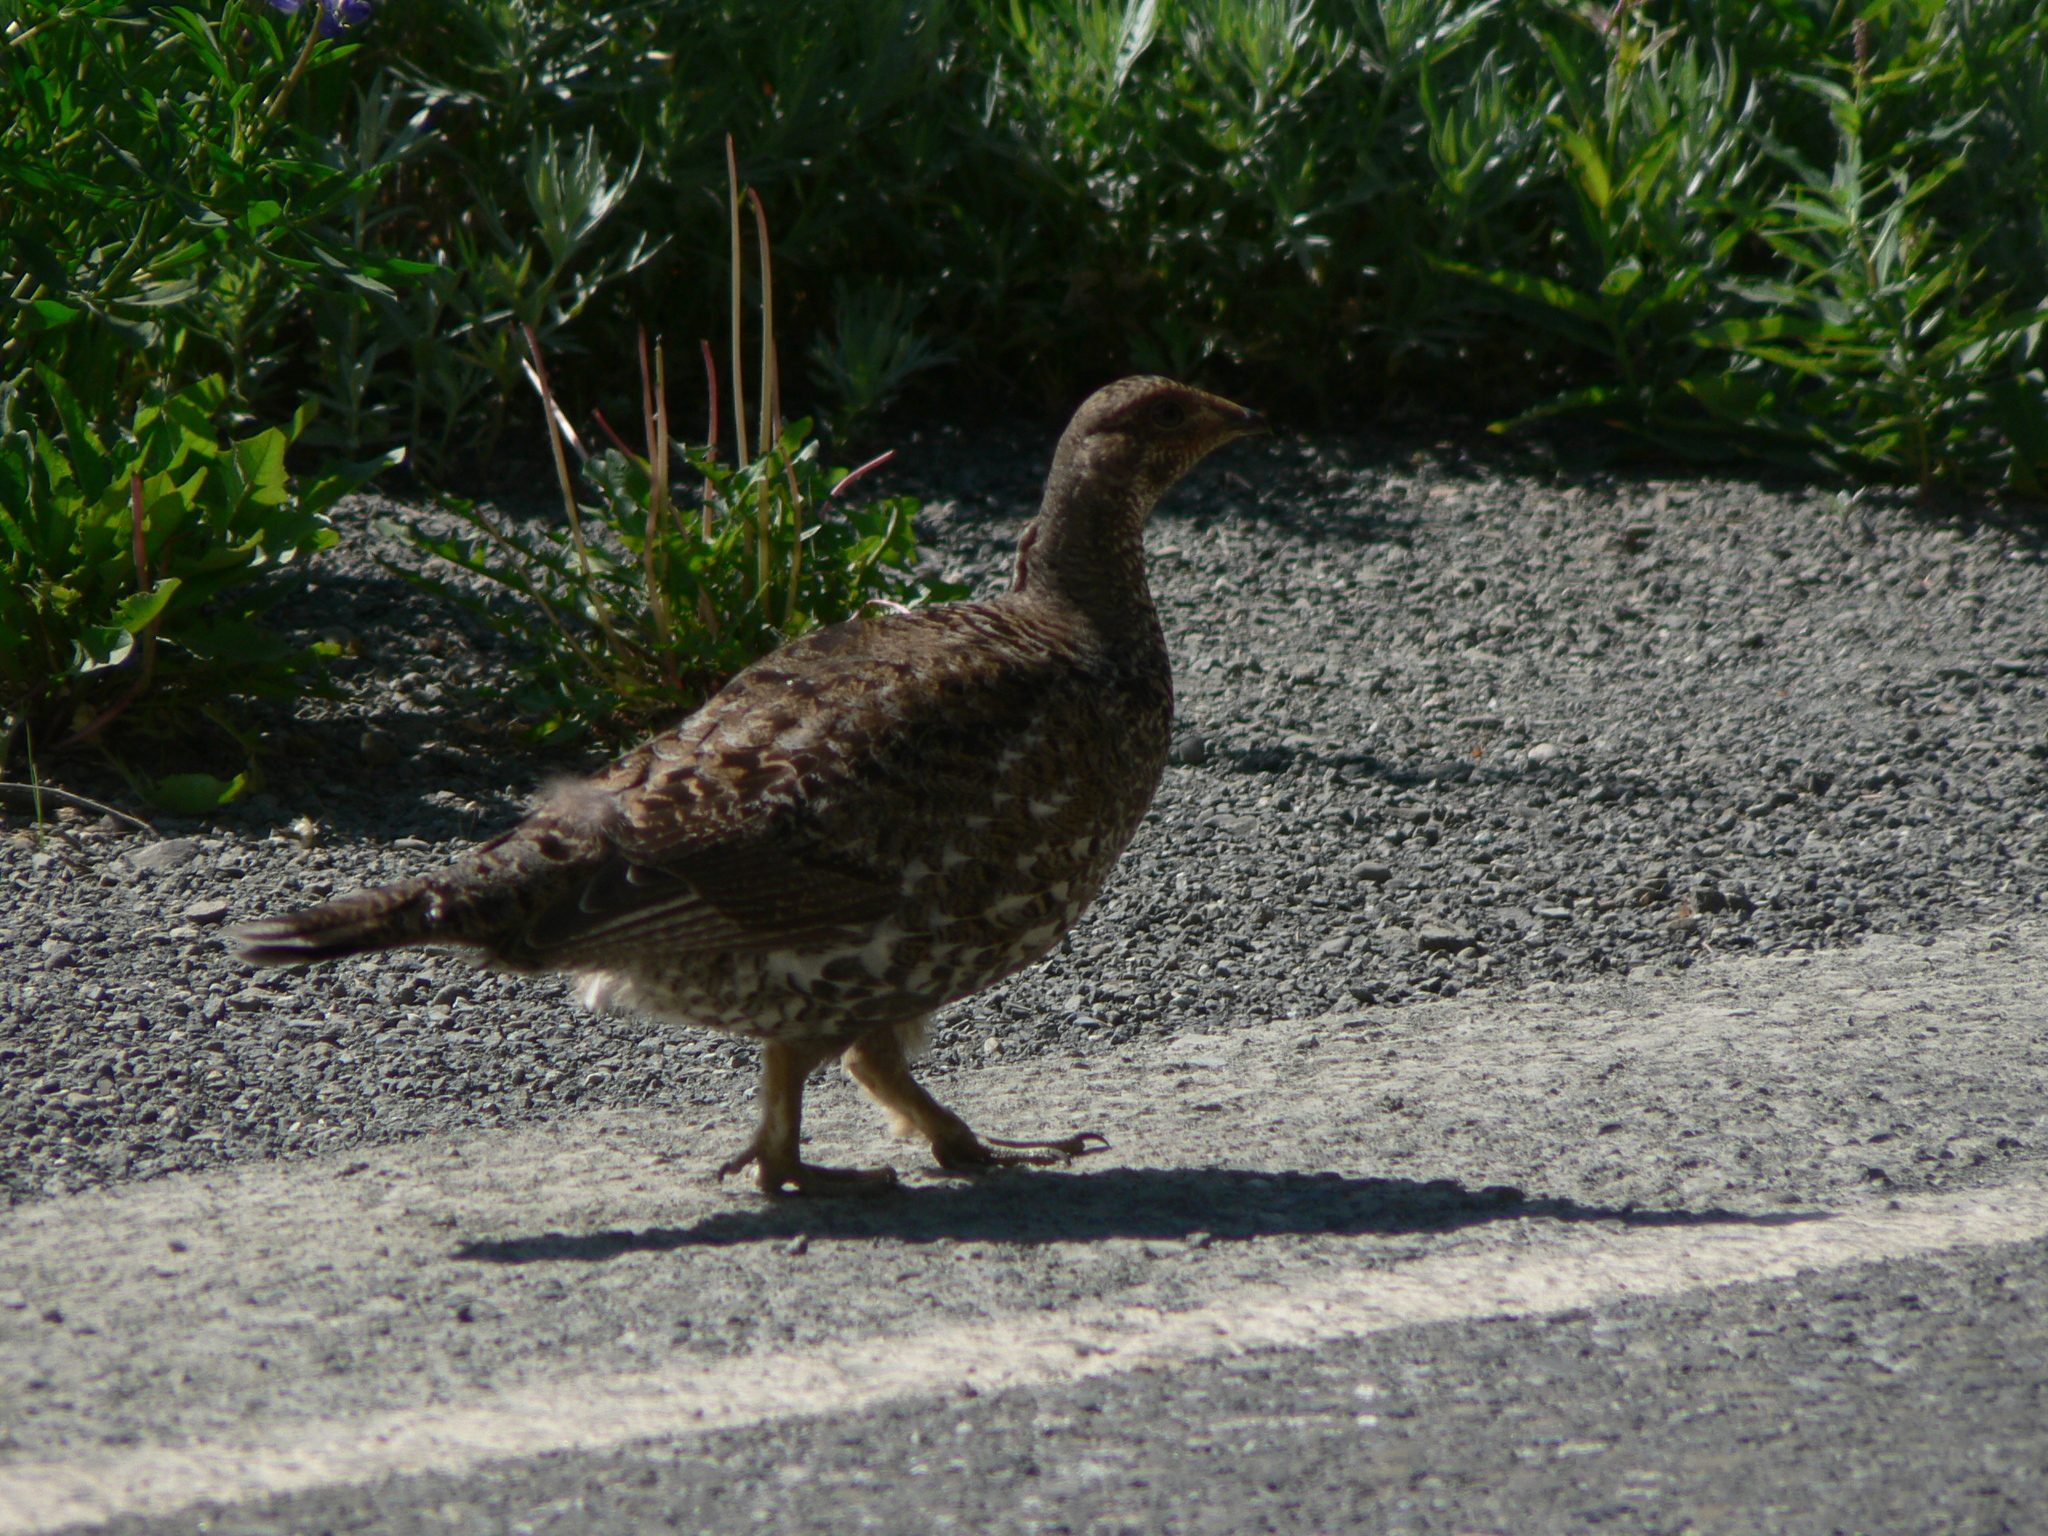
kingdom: Animalia
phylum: Chordata
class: Aves
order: Galliformes
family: Phasianidae
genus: Dendragapus
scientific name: Dendragapus fuliginosus
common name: Sooty grouse
